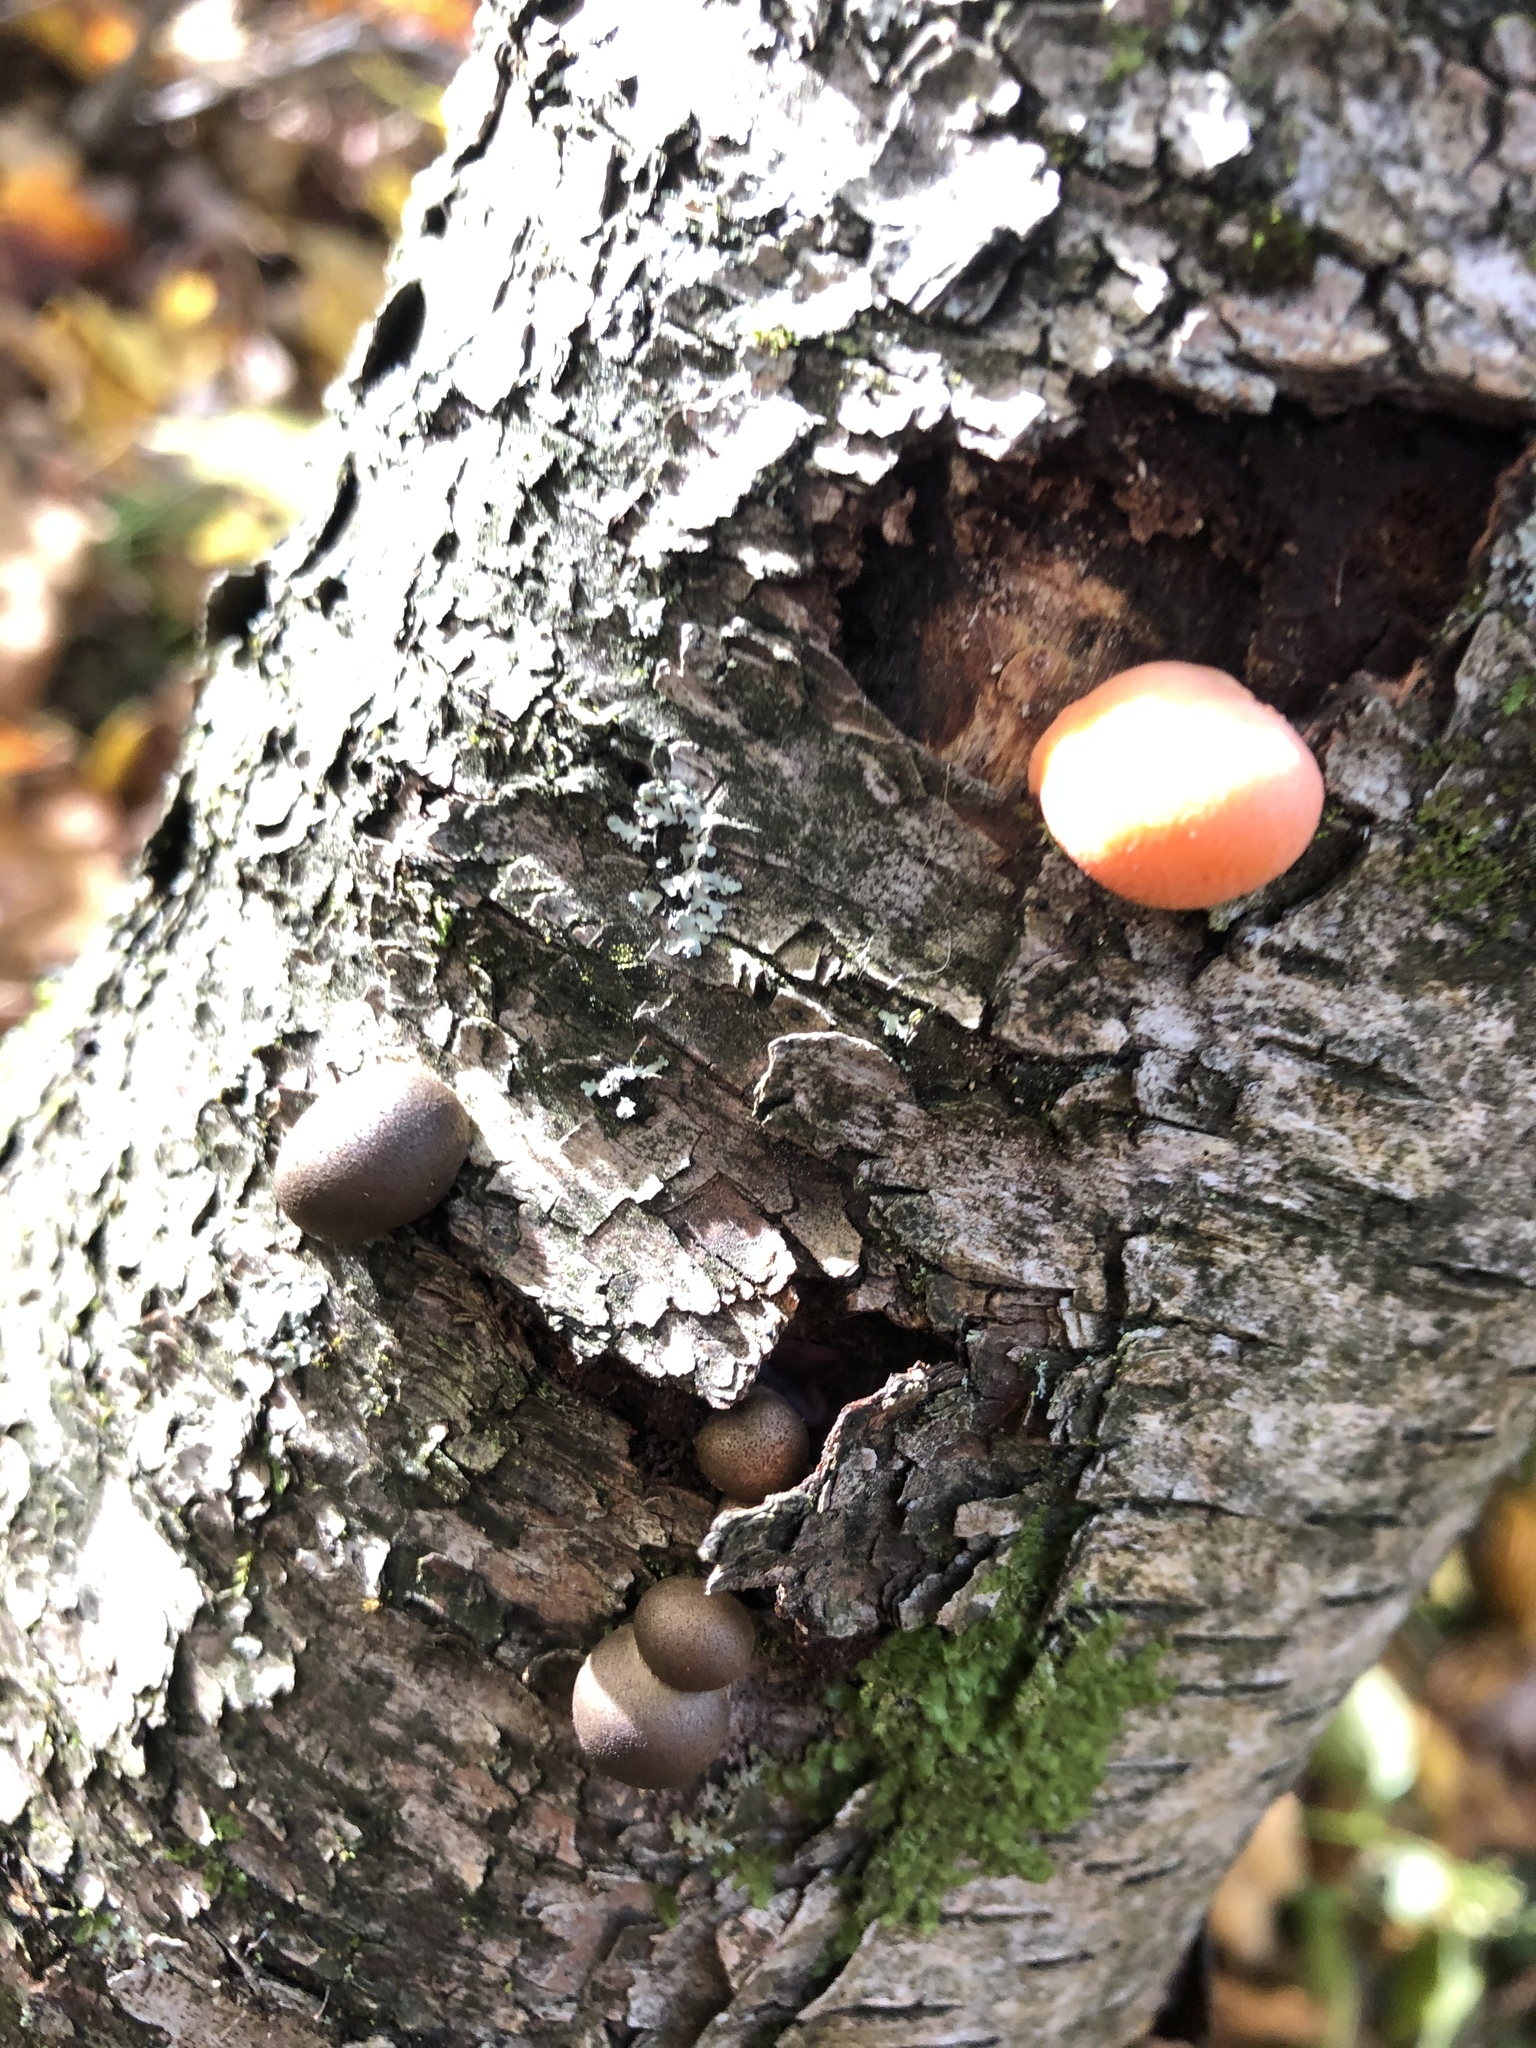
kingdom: Protozoa
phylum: Mycetozoa
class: Myxomycetes
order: Cribrariales
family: Tubiferaceae
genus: Lycogala
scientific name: Lycogala epidendrum
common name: Wolf's milk
